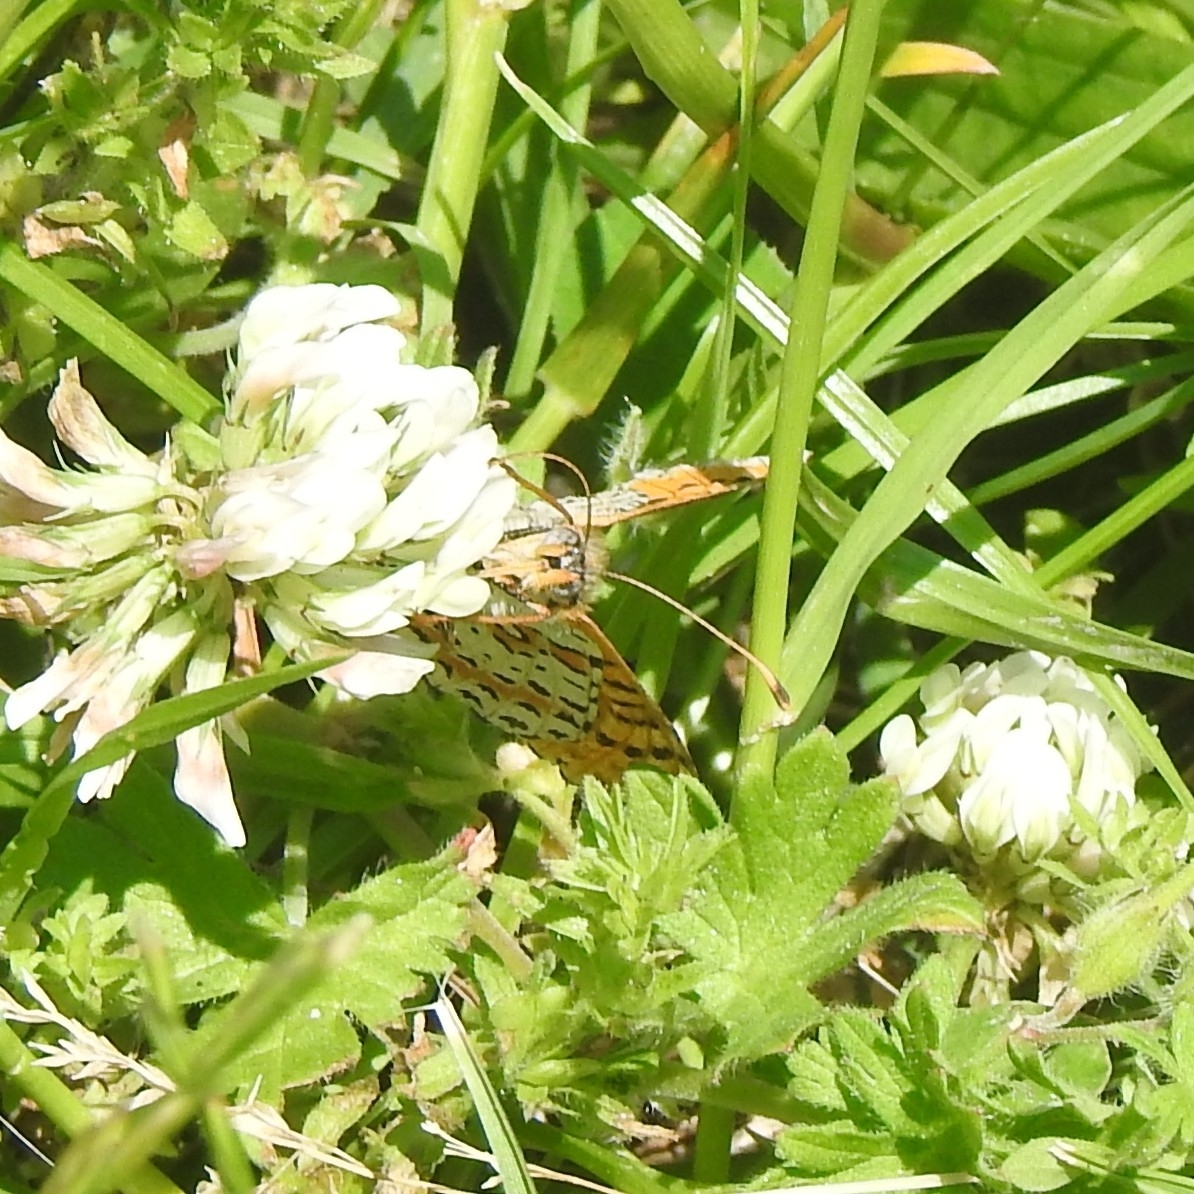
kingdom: Animalia
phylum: Arthropoda
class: Insecta
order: Lepidoptera
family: Nymphalidae
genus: Melitaea
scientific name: Melitaea didyma
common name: Spotted fritillary
